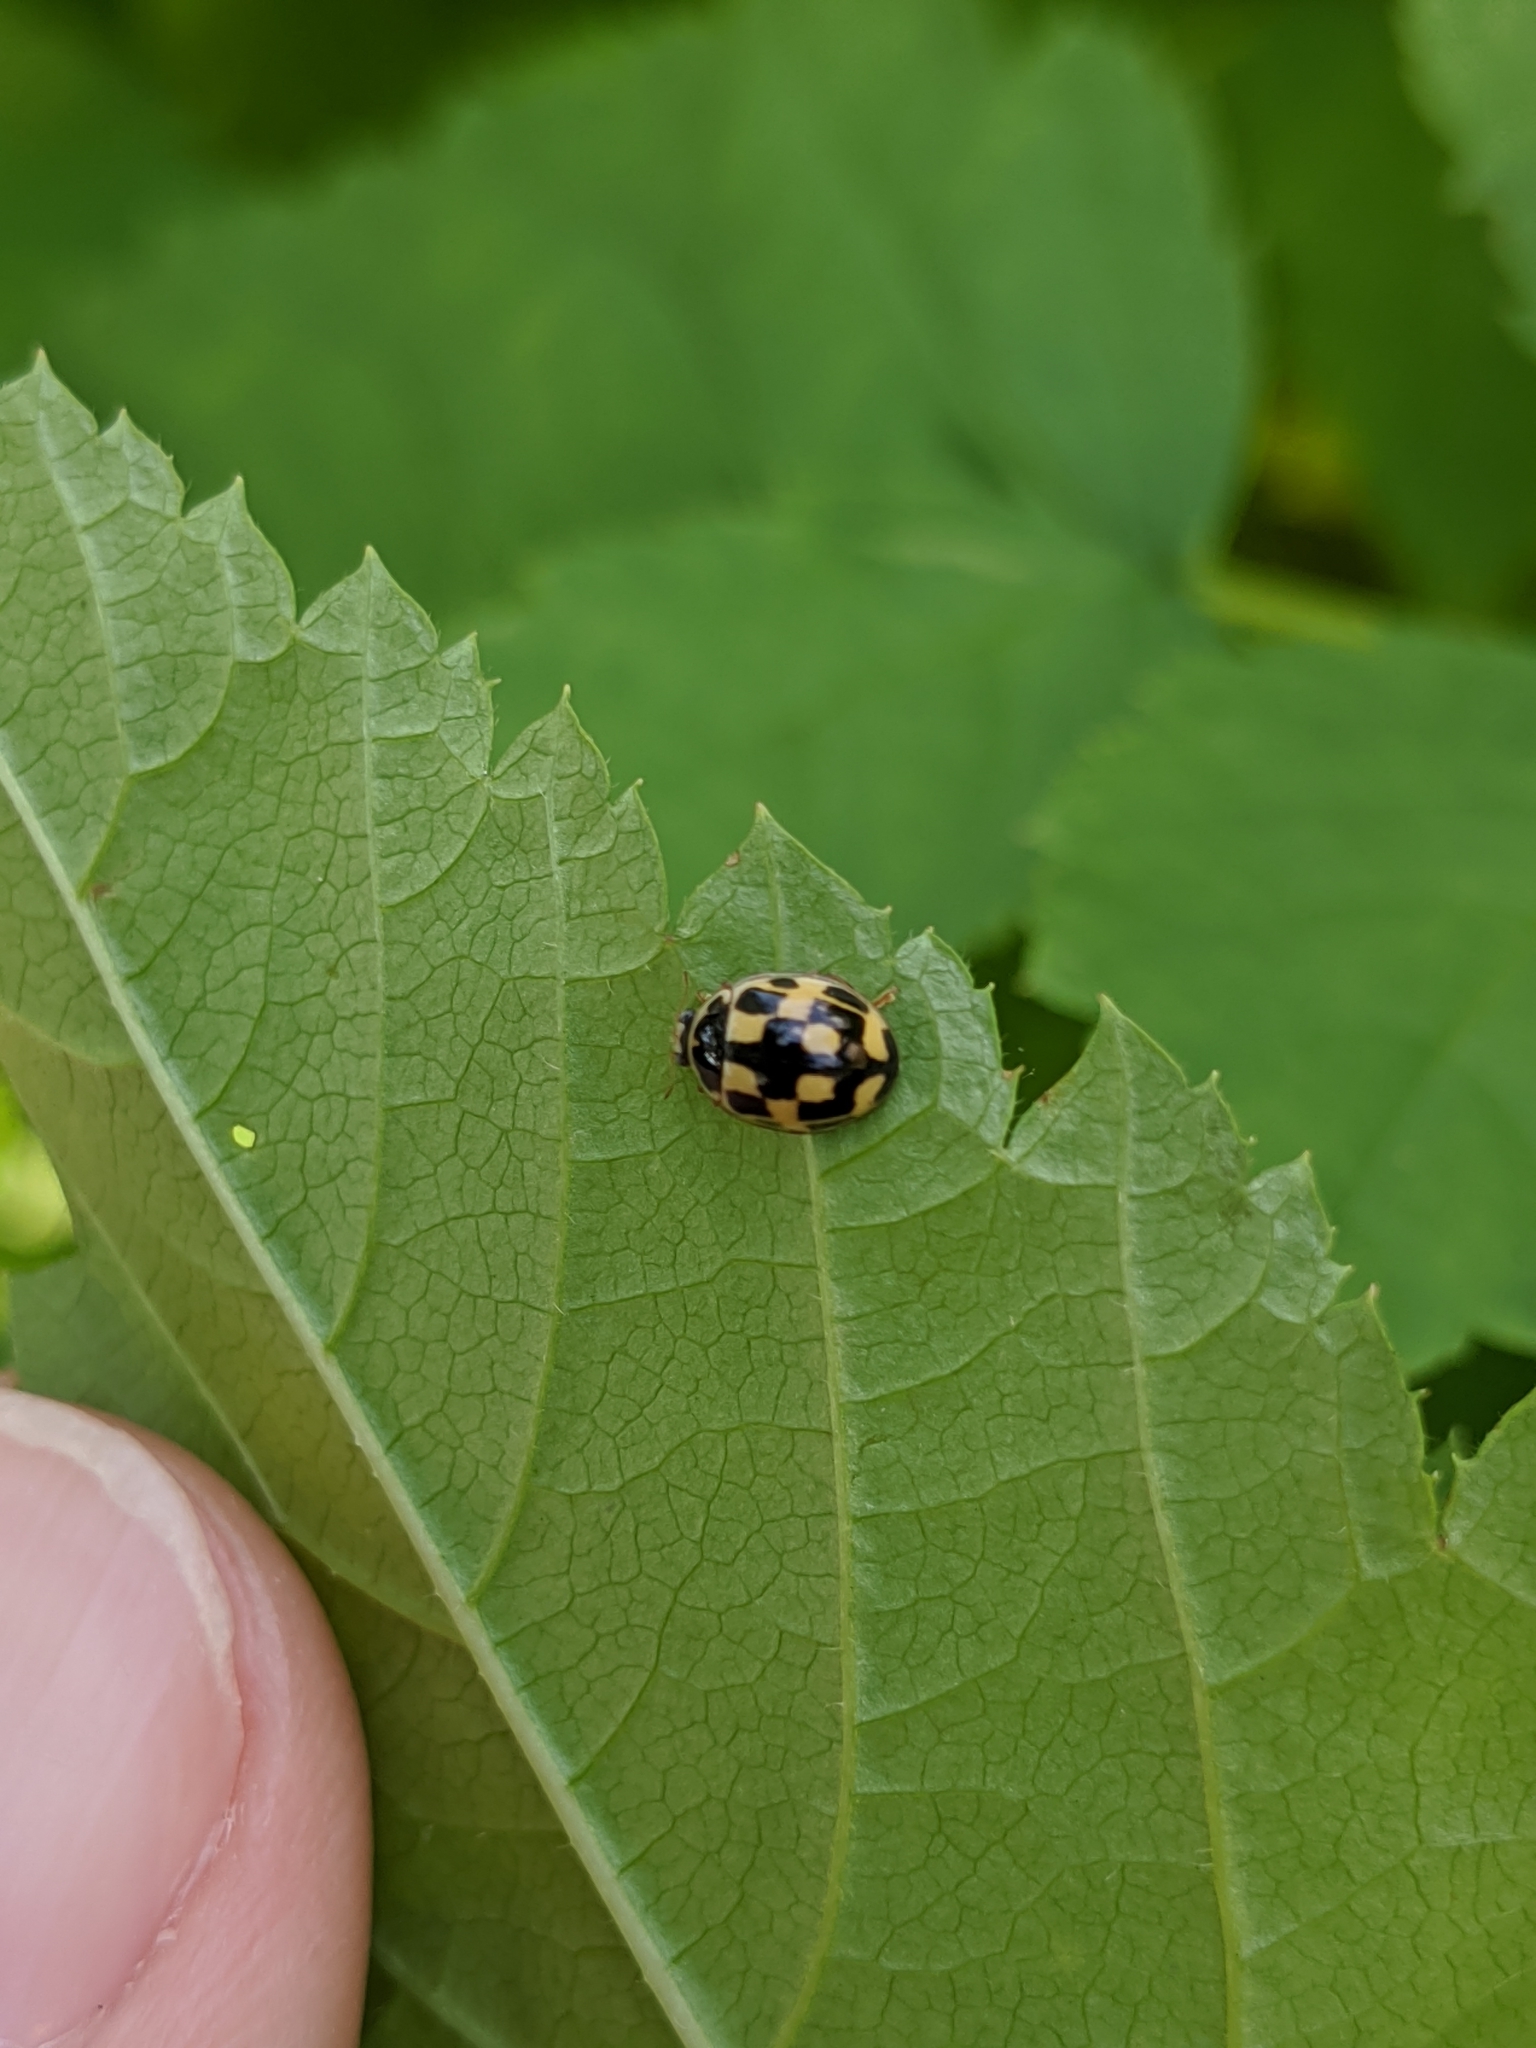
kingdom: Animalia
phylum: Arthropoda
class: Insecta
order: Coleoptera
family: Coccinellidae
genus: Propylaea
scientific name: Propylaea quatuordecimpunctata
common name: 14-spotted ladybird beetle
